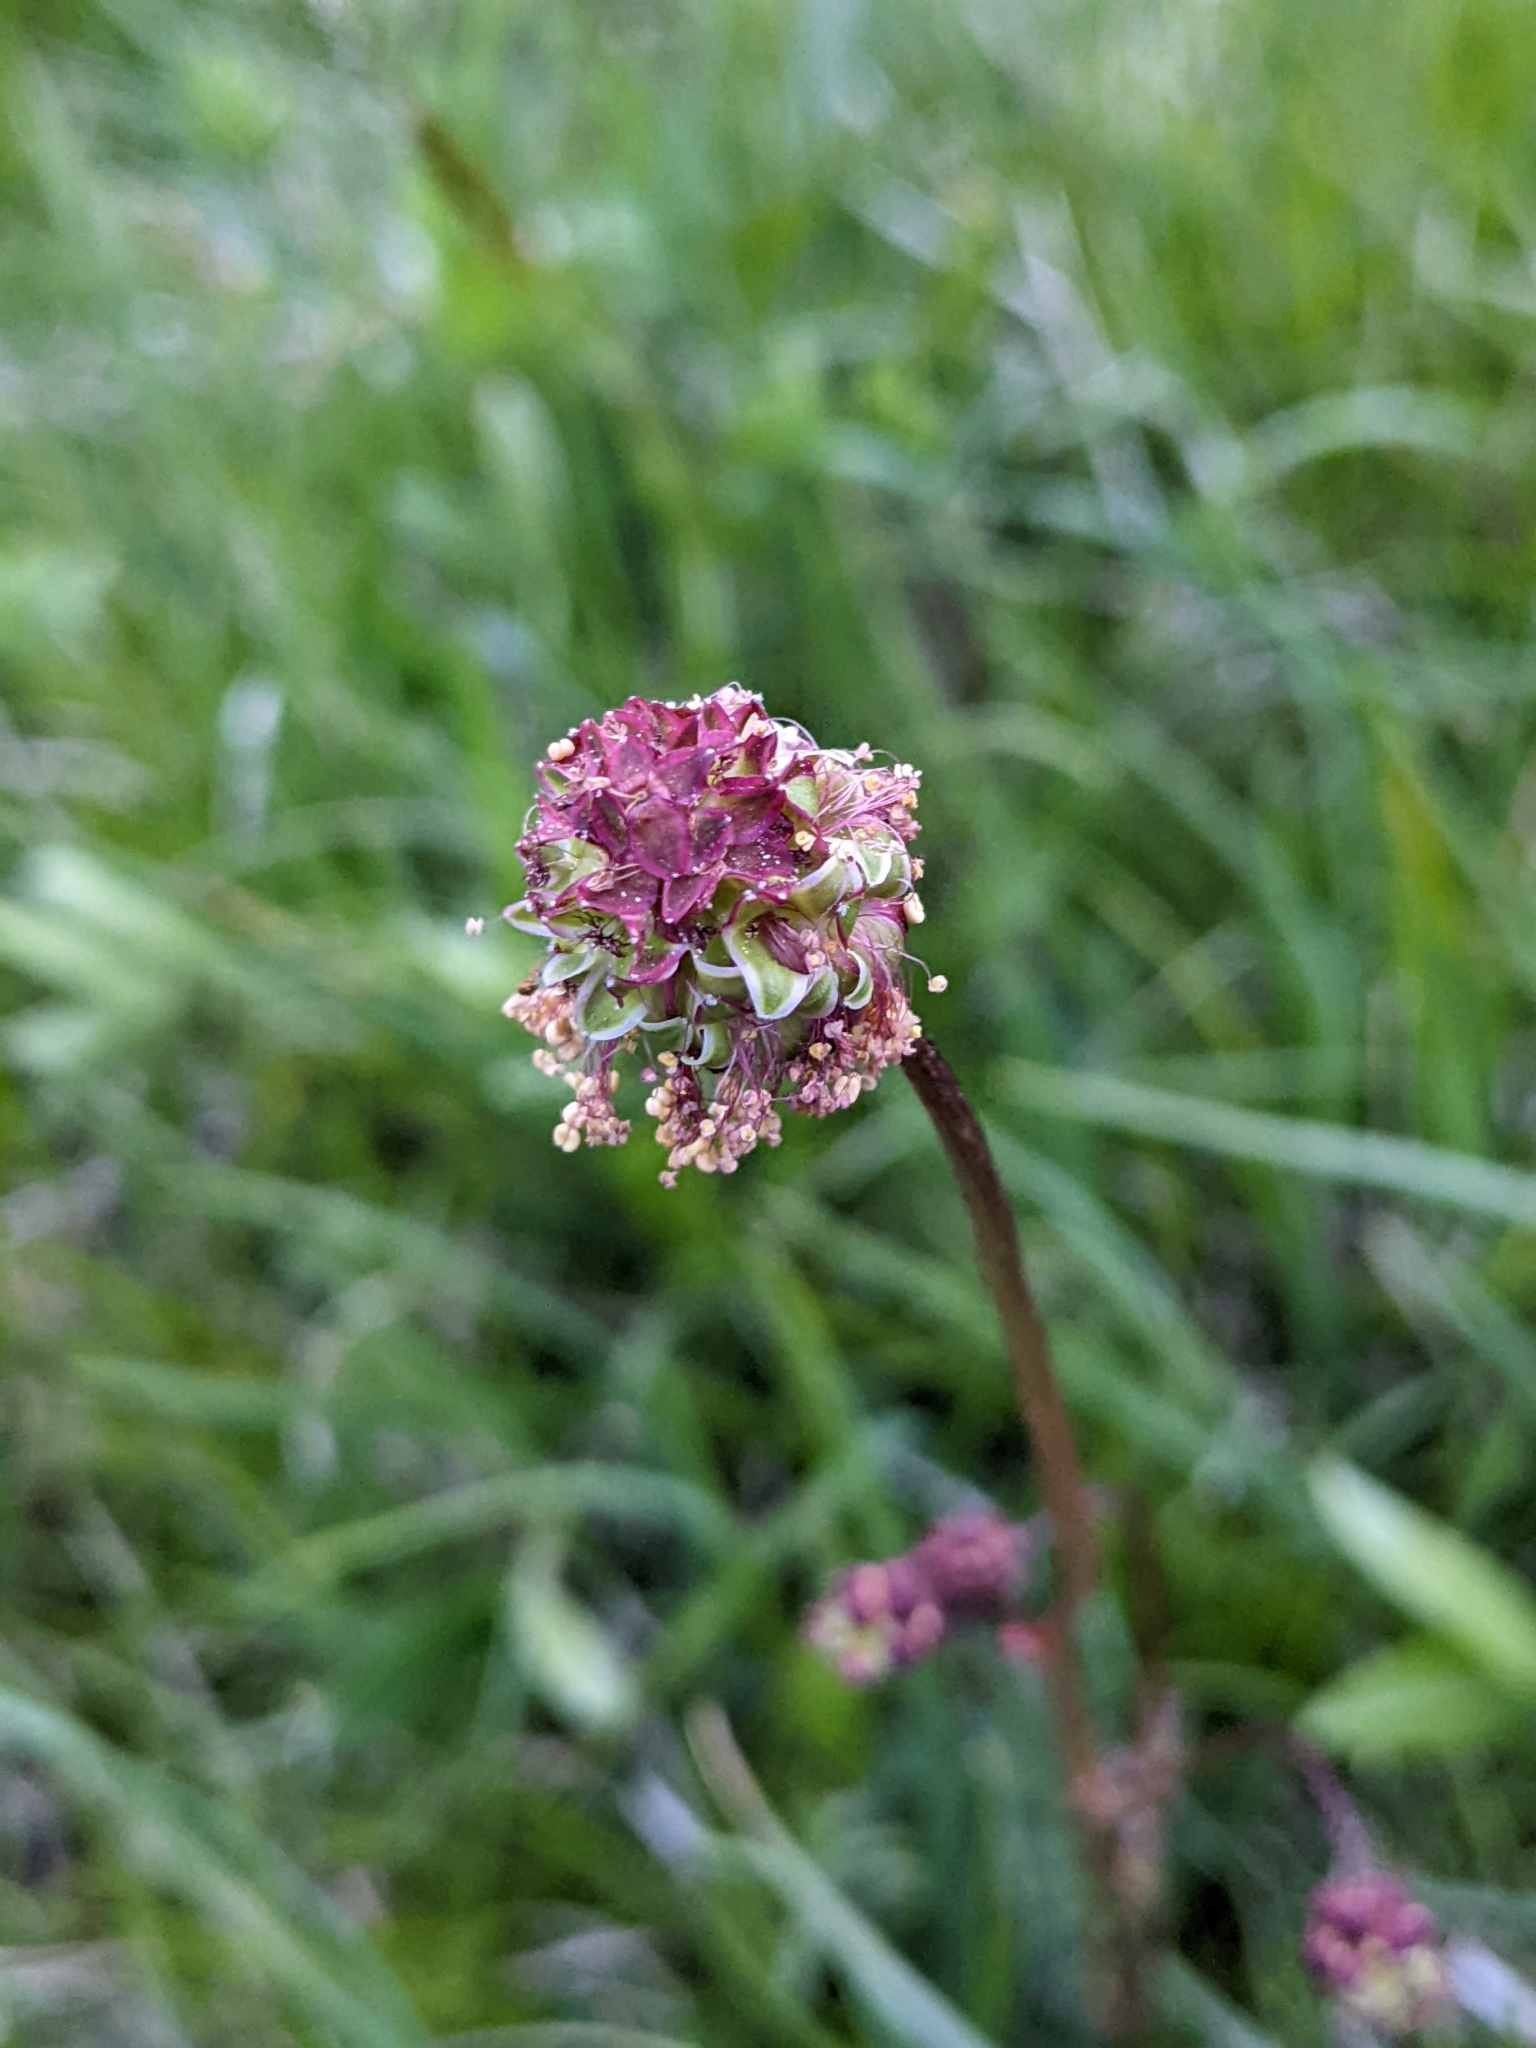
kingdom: Plantae
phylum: Tracheophyta
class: Magnoliopsida
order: Rosales
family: Rosaceae
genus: Poterium
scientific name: Poterium sanguisorba
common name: Salad burnet
